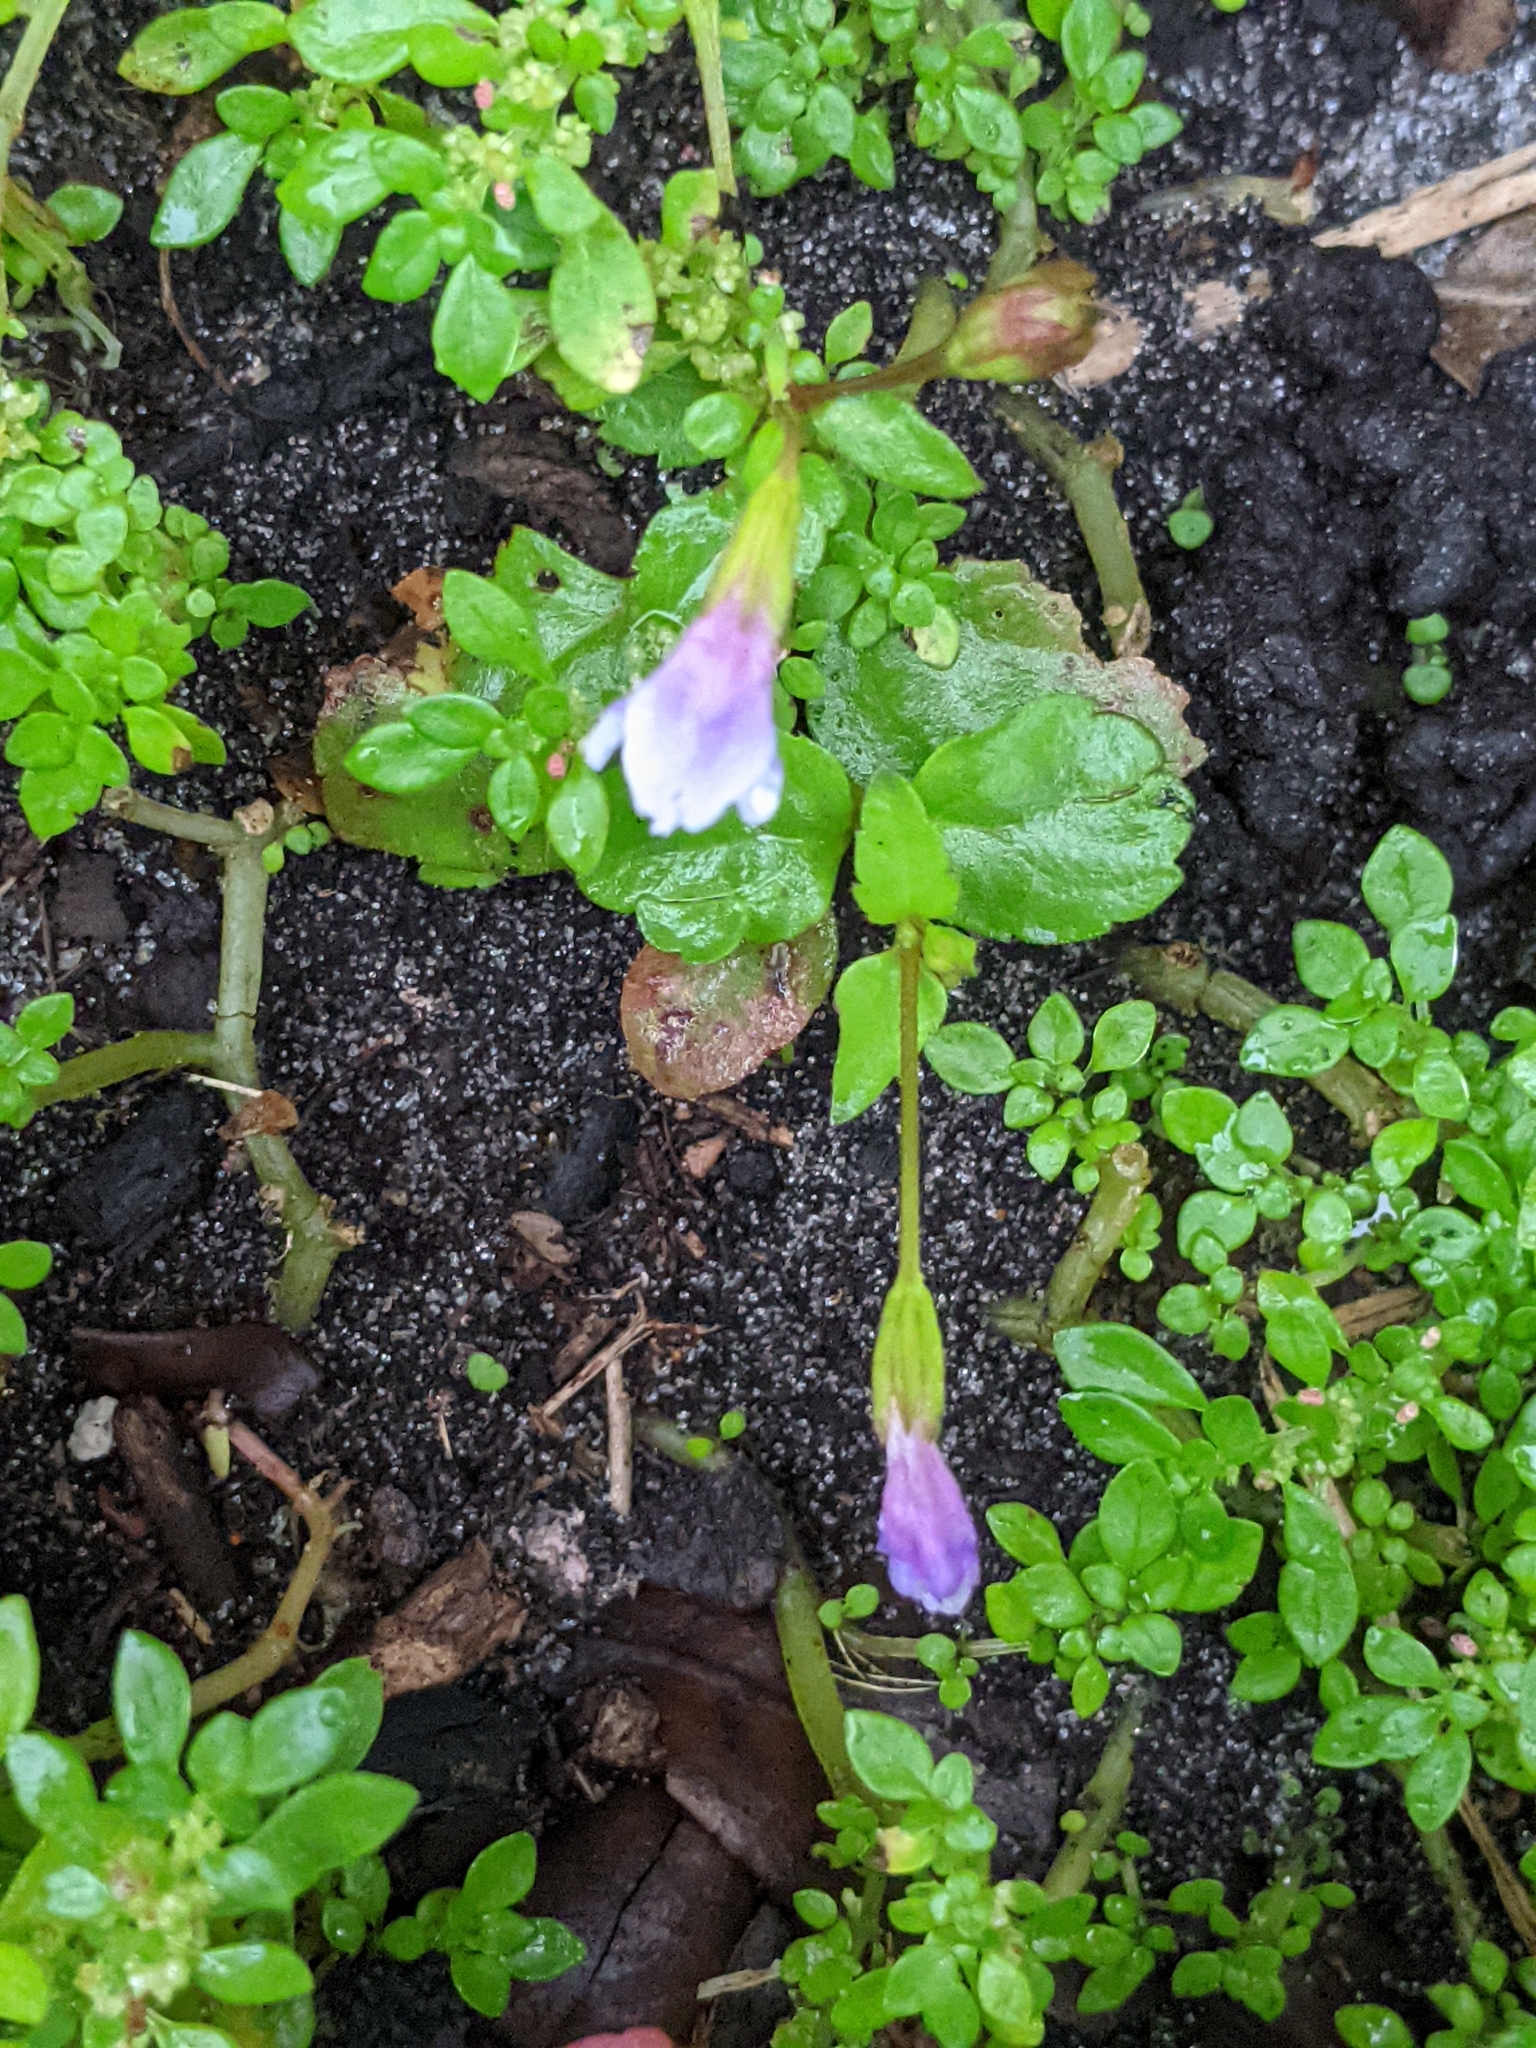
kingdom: Plantae
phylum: Tracheophyta
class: Magnoliopsida
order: Lamiales
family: Linderniaceae
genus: Torenia
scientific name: Torenia crustacea
